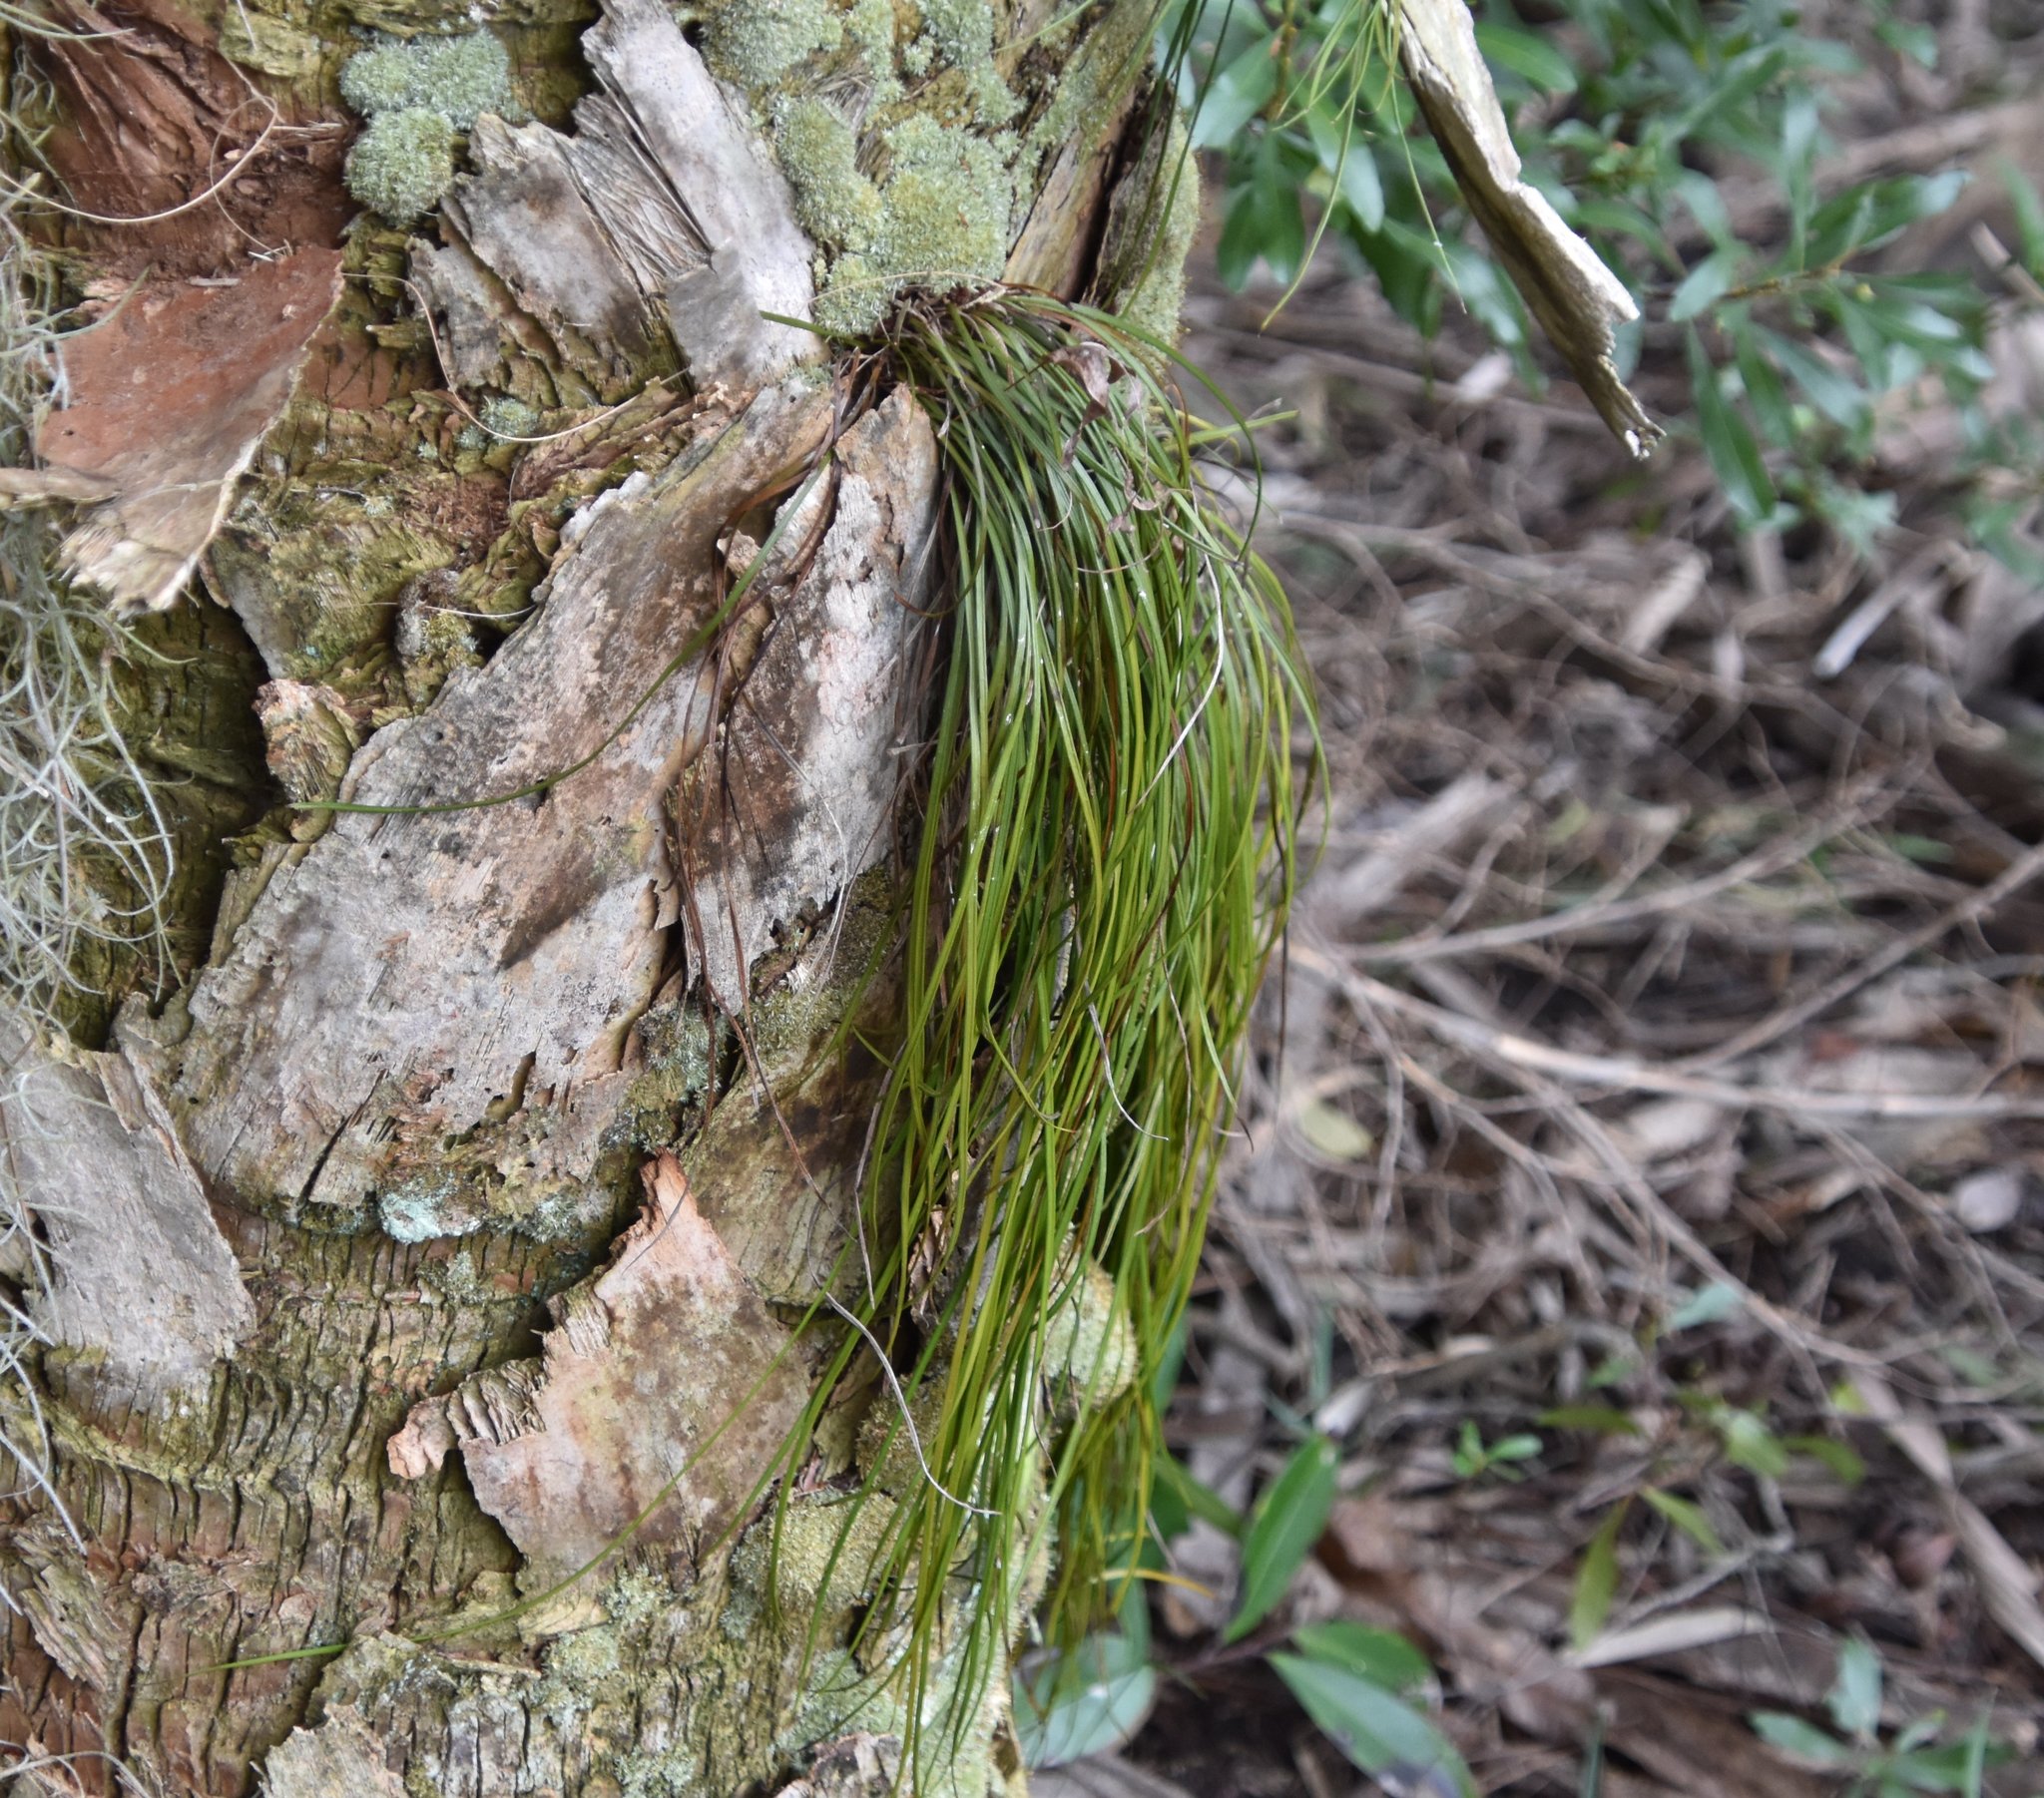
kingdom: Plantae
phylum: Tracheophyta
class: Polypodiopsida
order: Polypodiales
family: Pteridaceae
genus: Vittaria
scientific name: Vittaria lineata
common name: Shoestring fern
